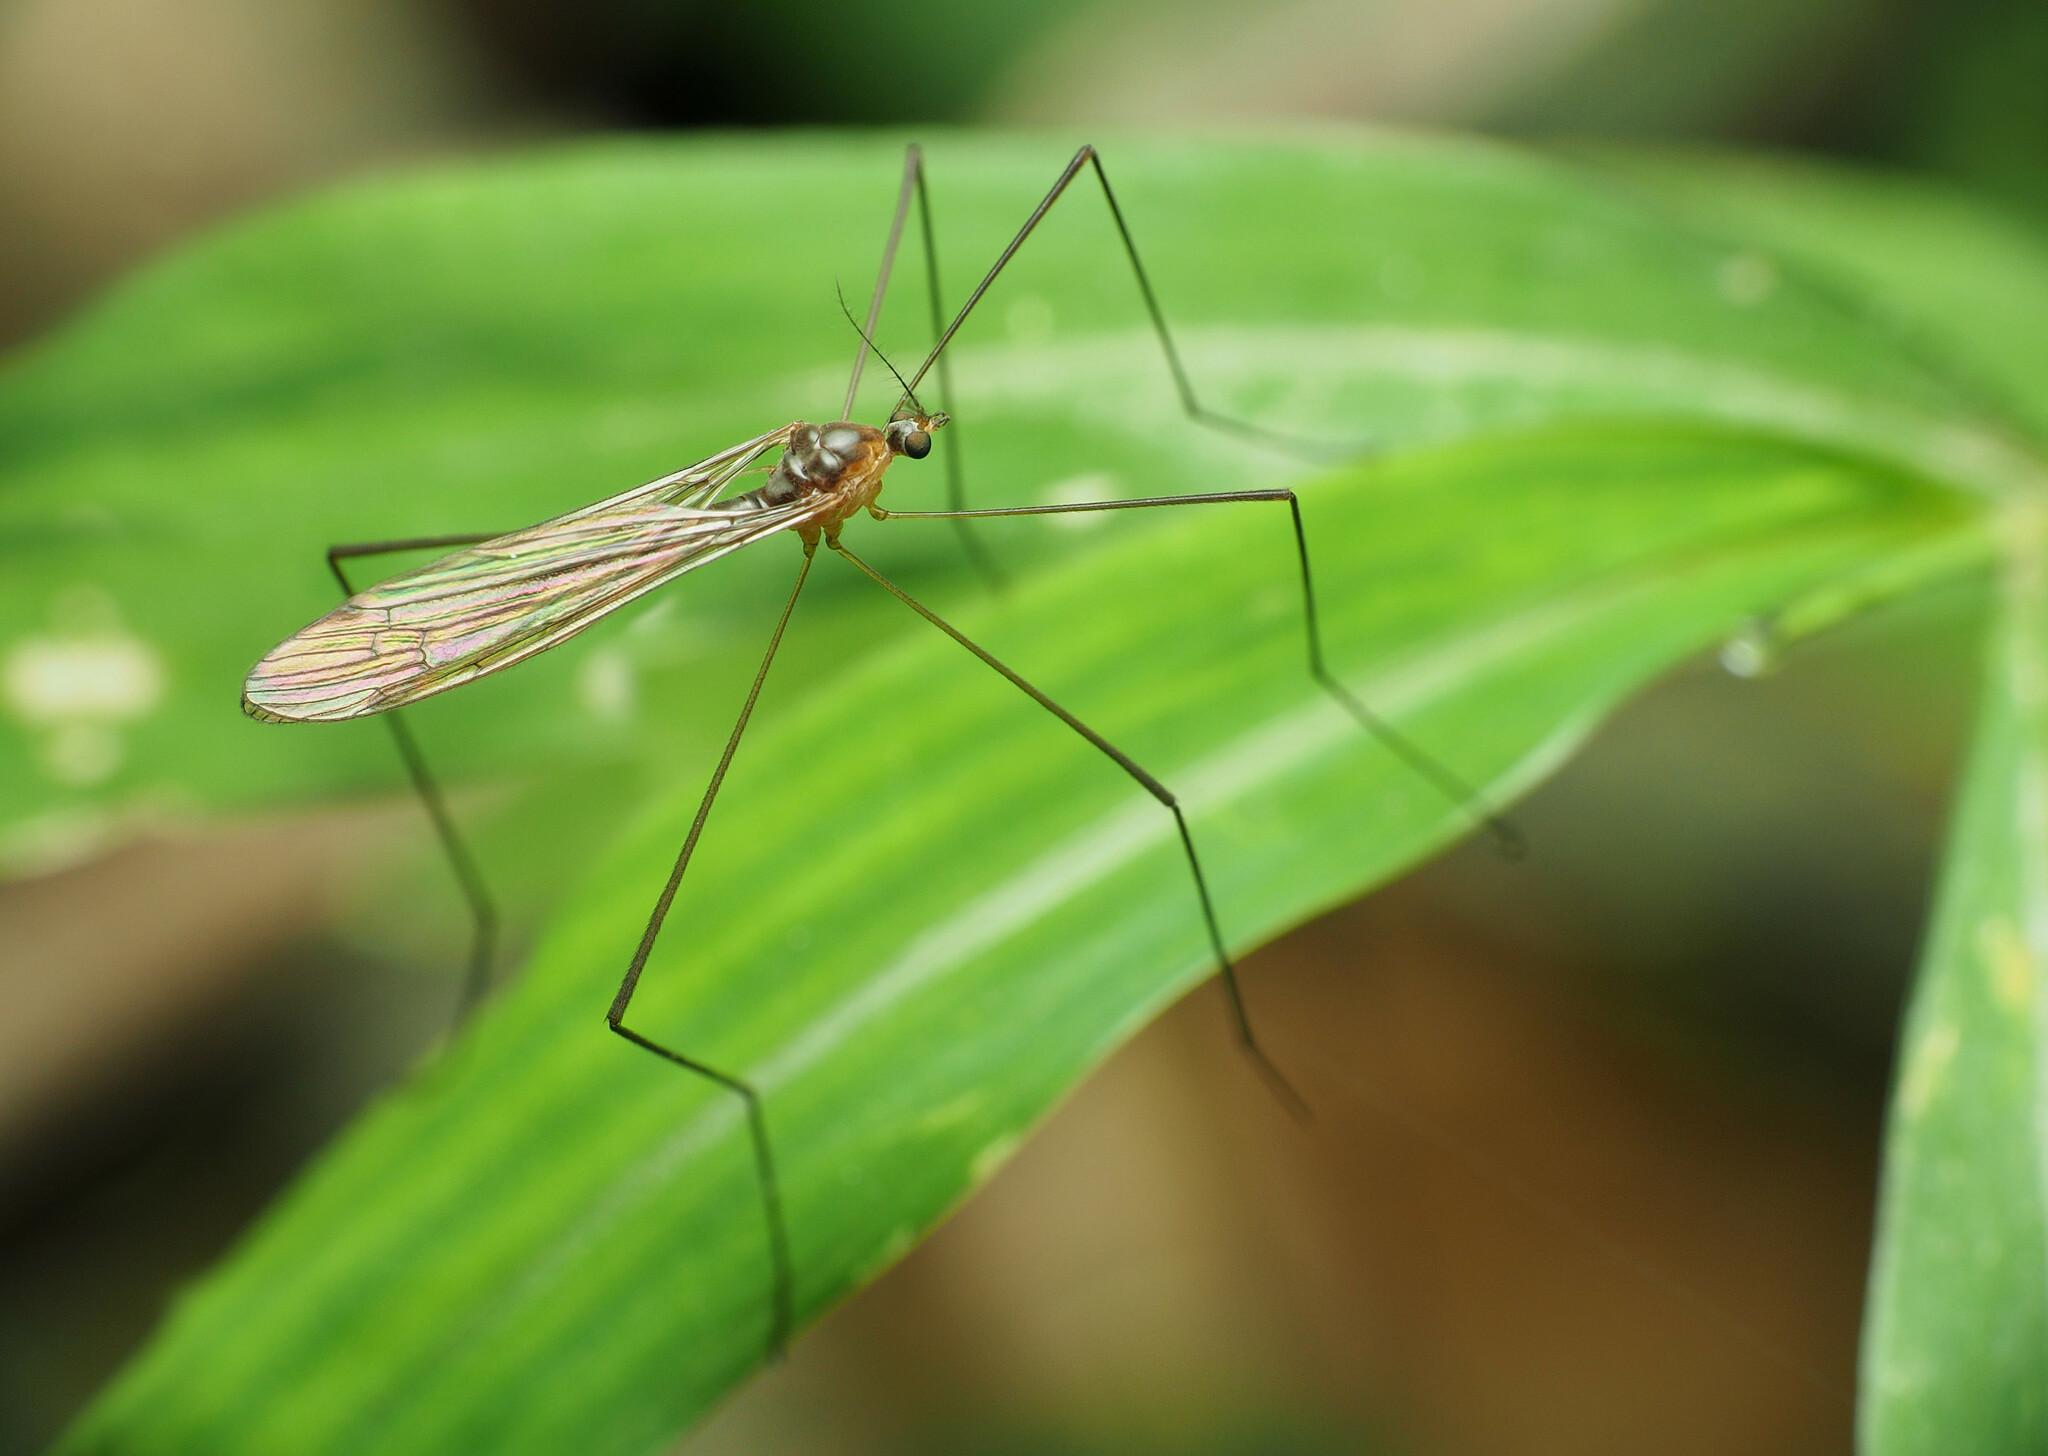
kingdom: Animalia
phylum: Arthropoda
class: Insecta
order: Diptera
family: Limoniidae
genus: Pilaria
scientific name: Pilaria tenuipes
